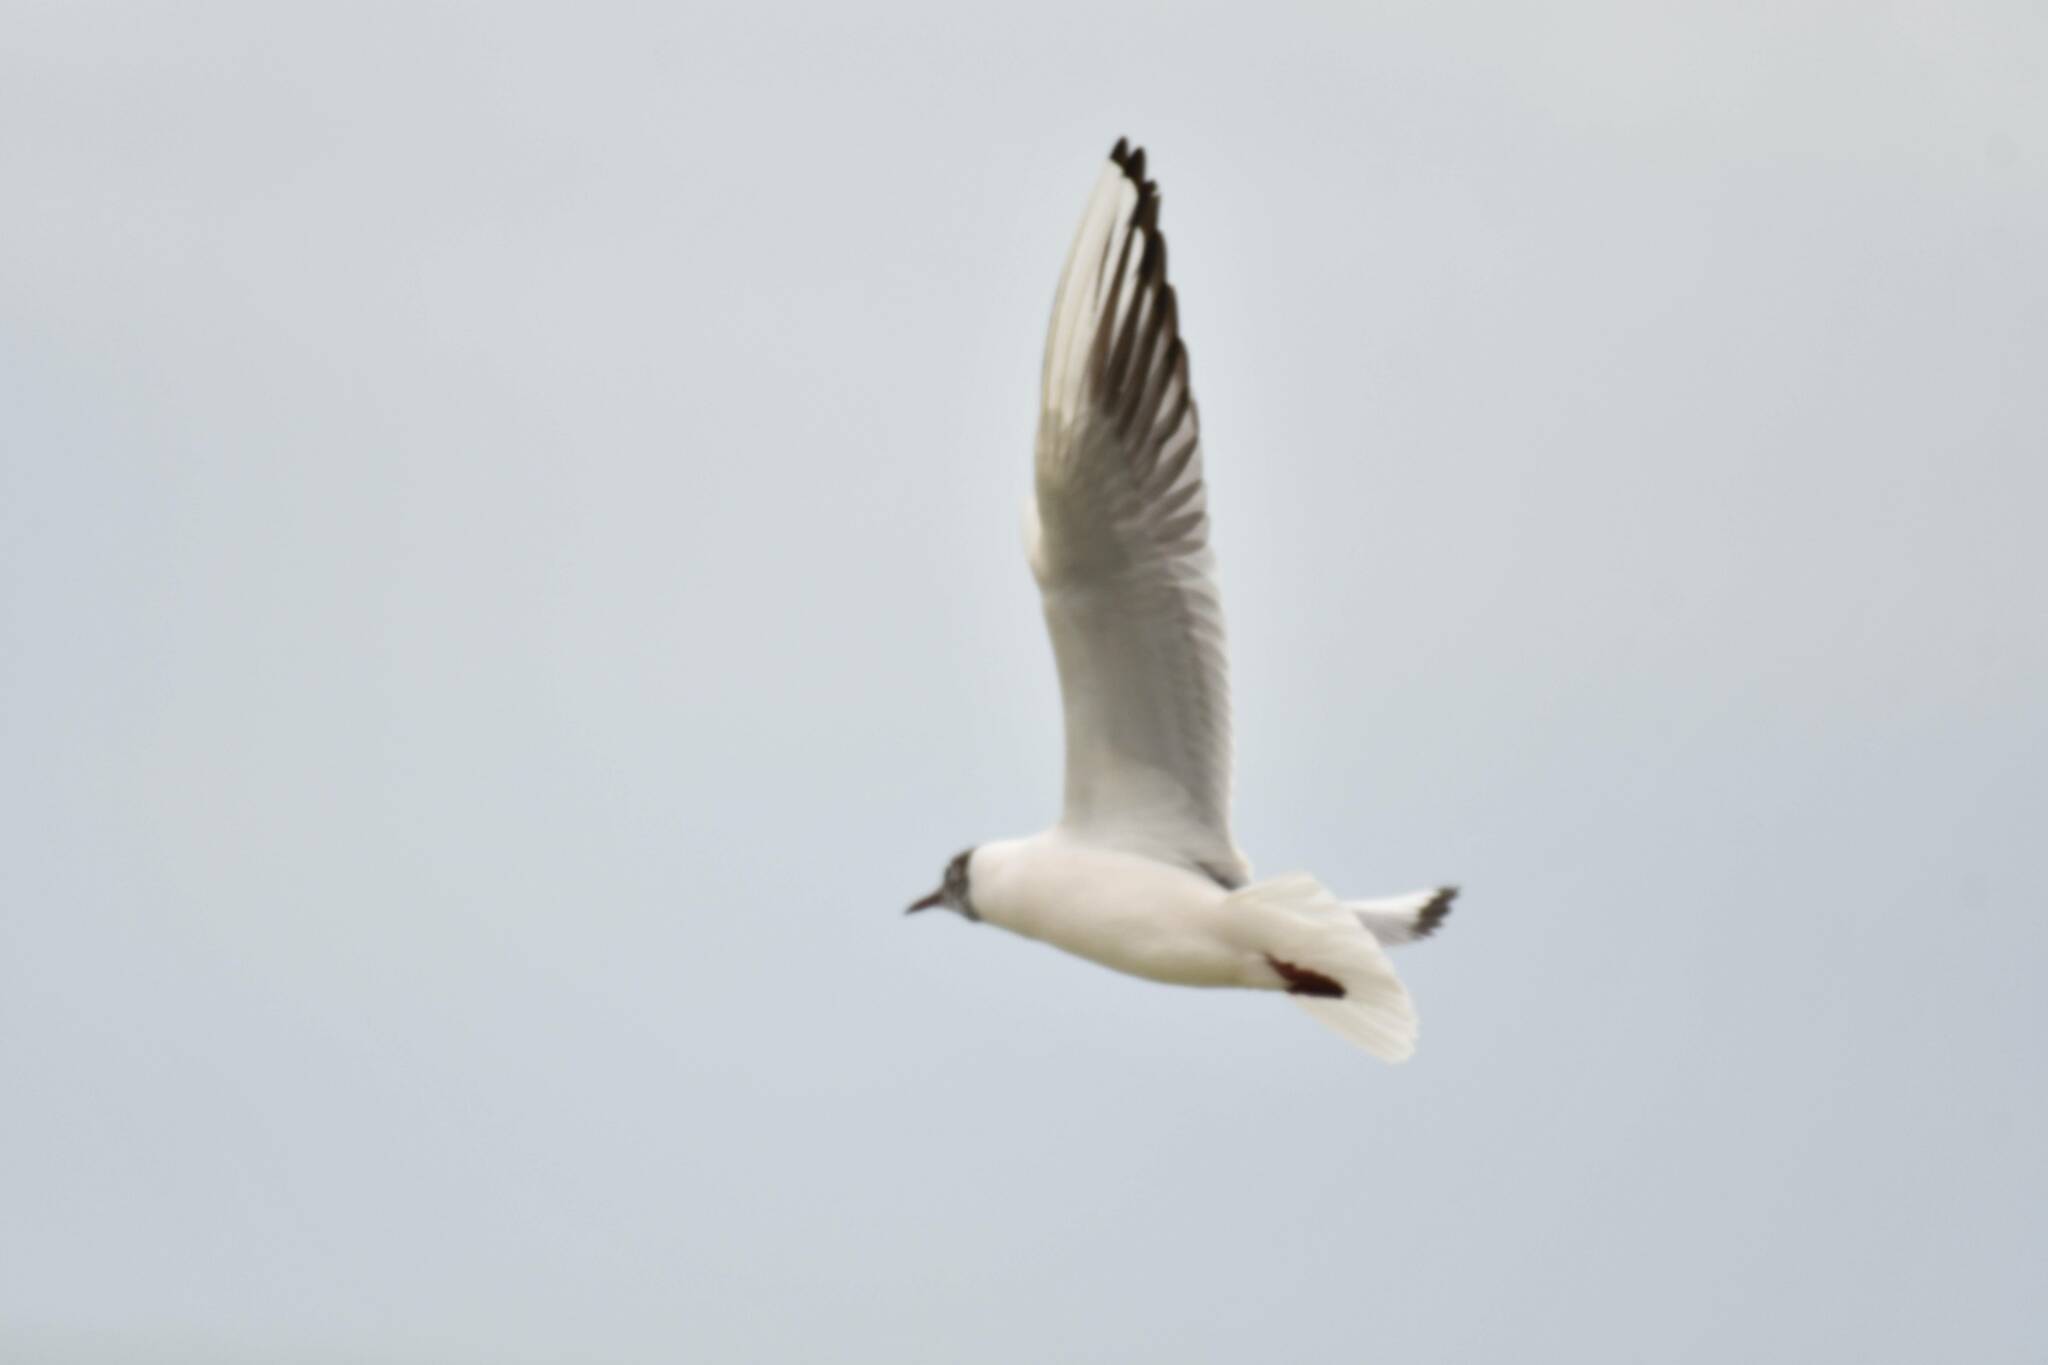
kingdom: Animalia
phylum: Chordata
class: Aves
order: Charadriiformes
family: Laridae
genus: Chroicocephalus
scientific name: Chroicocephalus ridibundus
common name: Black-headed gull
